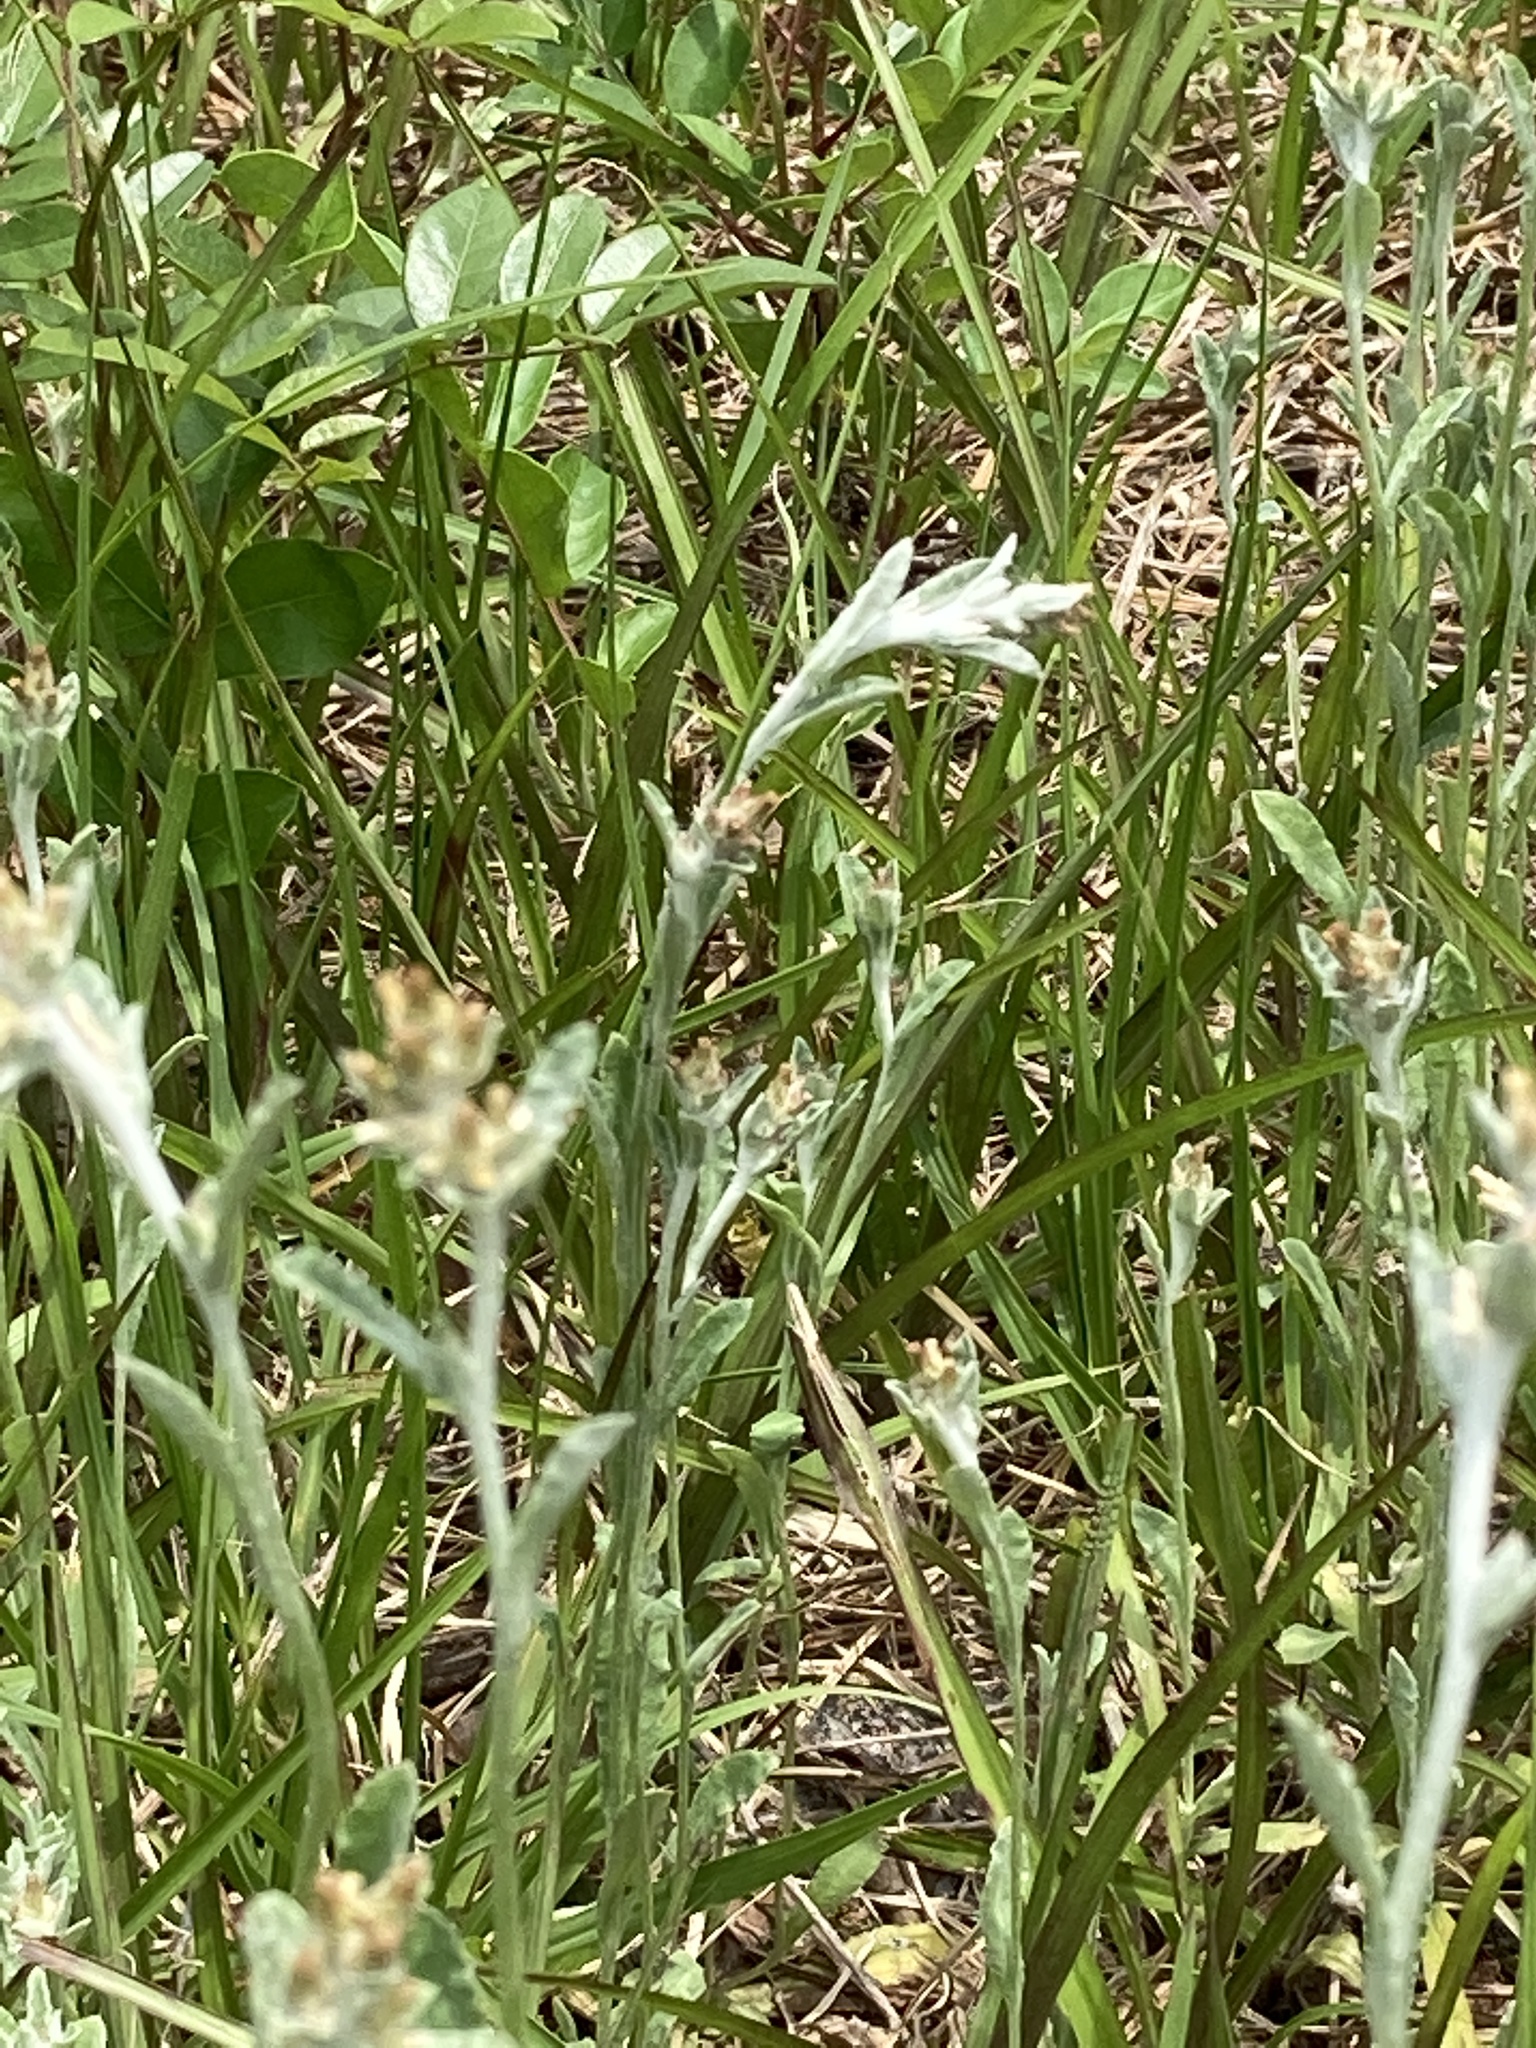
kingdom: Plantae
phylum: Tracheophyta
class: Magnoliopsida
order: Asterales
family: Asteraceae
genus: Gamochaeta
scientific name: Gamochaeta pensylvanica
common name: Pennsylvania everlasting
